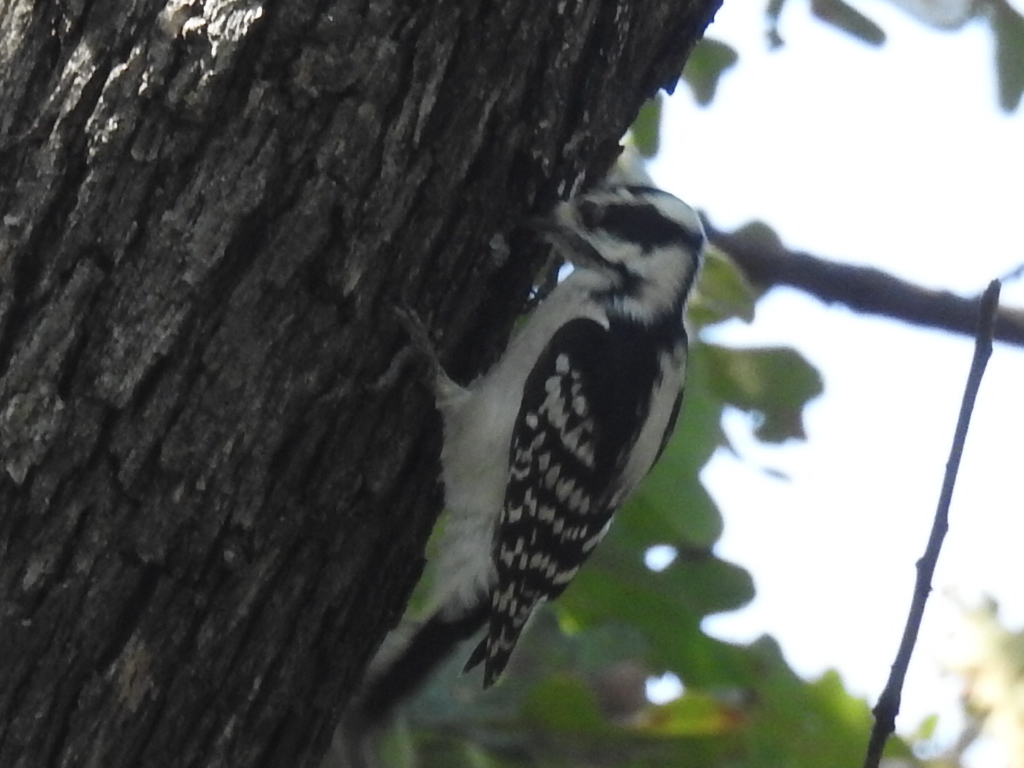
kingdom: Animalia
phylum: Chordata
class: Aves
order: Piciformes
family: Picidae
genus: Dryobates
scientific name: Dryobates pubescens
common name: Downy woodpecker
